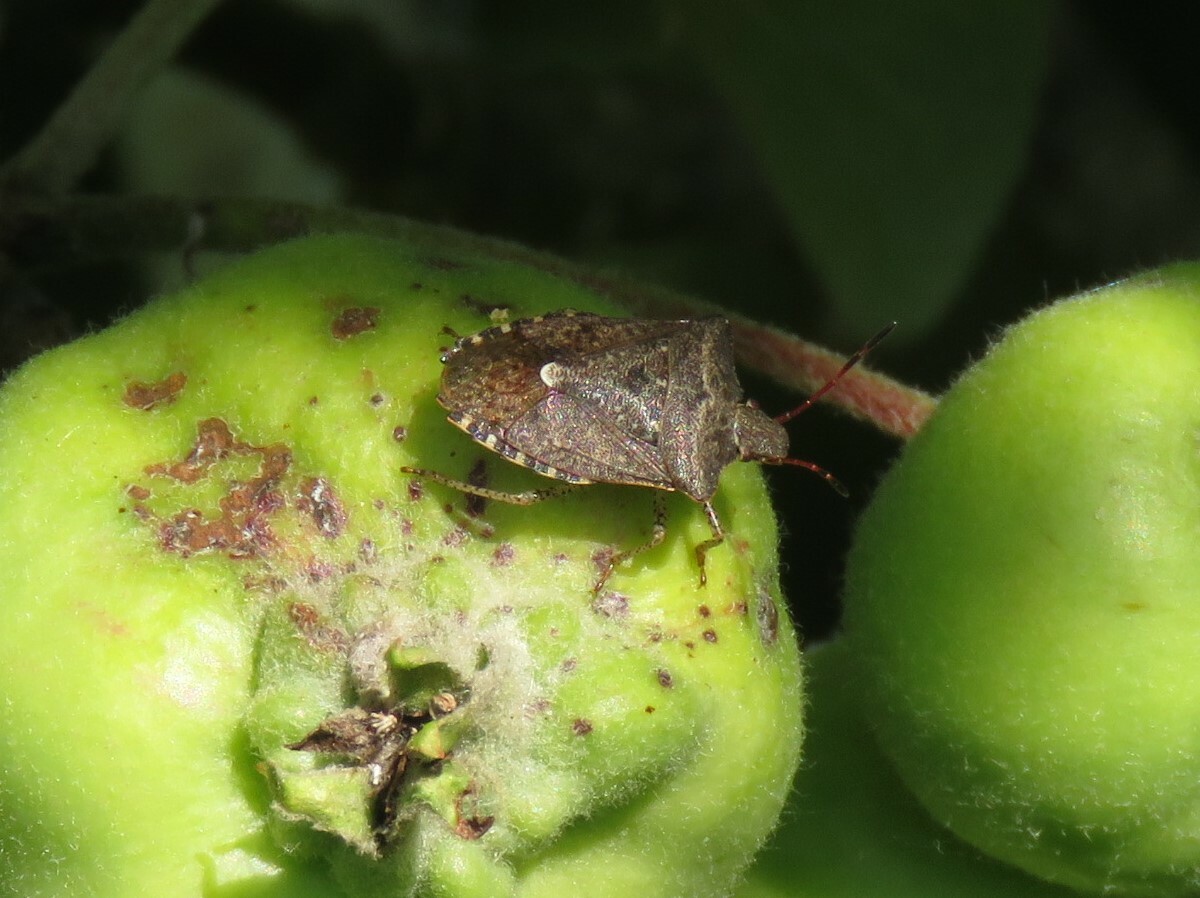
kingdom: Animalia
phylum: Arthropoda
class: Insecta
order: Hemiptera
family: Pentatomidae
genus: Euschistus
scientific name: Euschistus tristigmus
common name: Dusky stink bug
